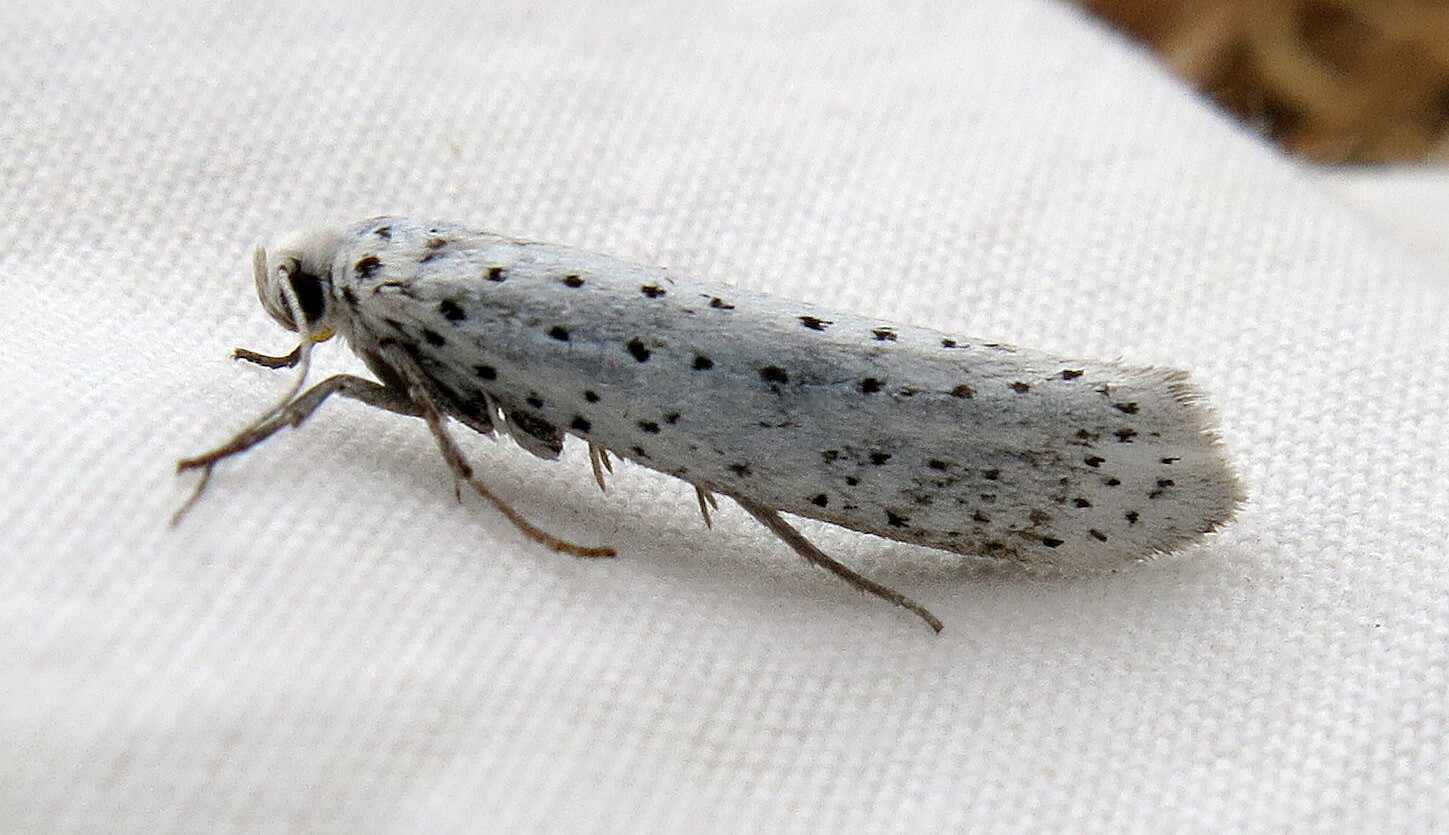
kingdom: Animalia
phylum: Arthropoda
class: Insecta
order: Lepidoptera
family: Yponomeutidae
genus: Yponomeuta
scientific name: Yponomeuta evonymella
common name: Bird-cherry ermine
